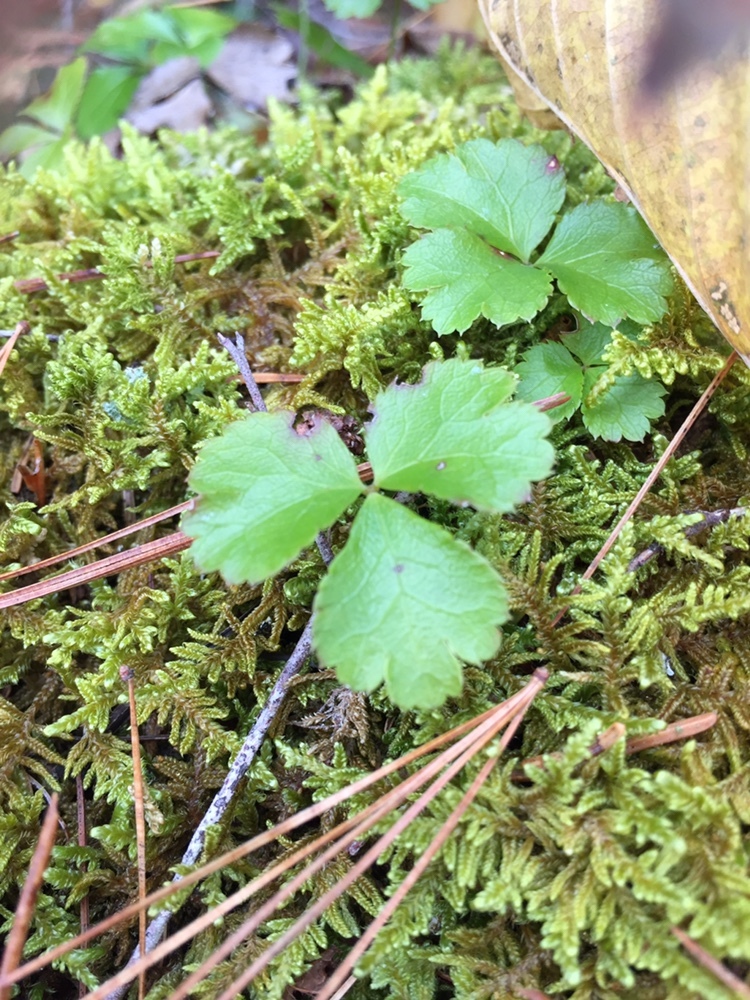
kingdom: Plantae
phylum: Tracheophyta
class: Magnoliopsida
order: Ranunculales
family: Ranunculaceae
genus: Coptis
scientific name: Coptis trifolia
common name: Canker-root
